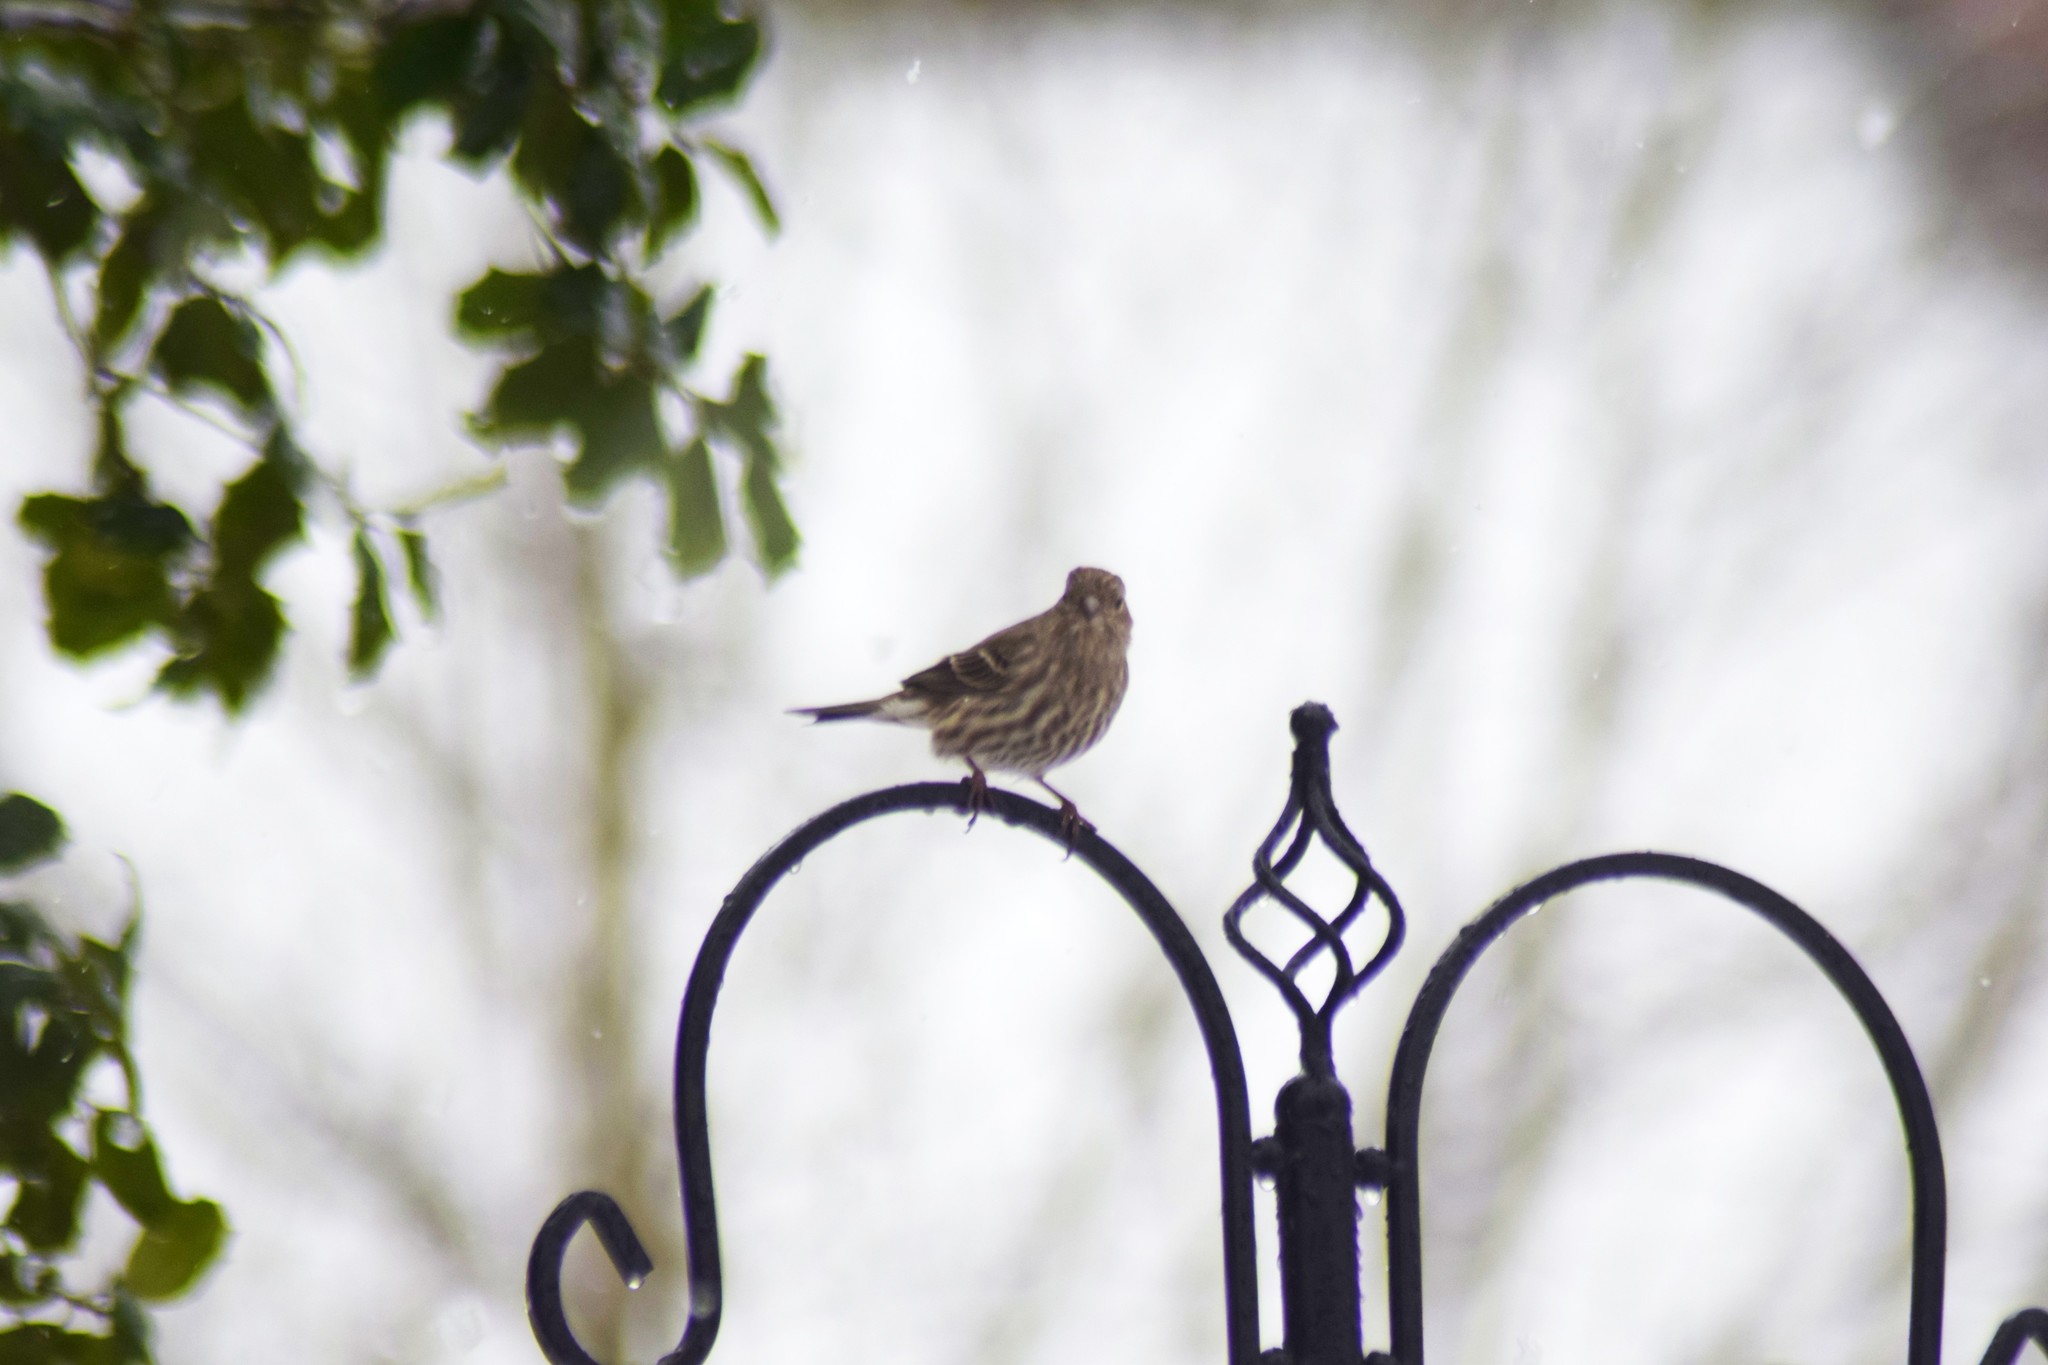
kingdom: Animalia
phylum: Chordata
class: Aves
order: Passeriformes
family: Fringillidae
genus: Spinus
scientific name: Spinus pinus
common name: Pine siskin
